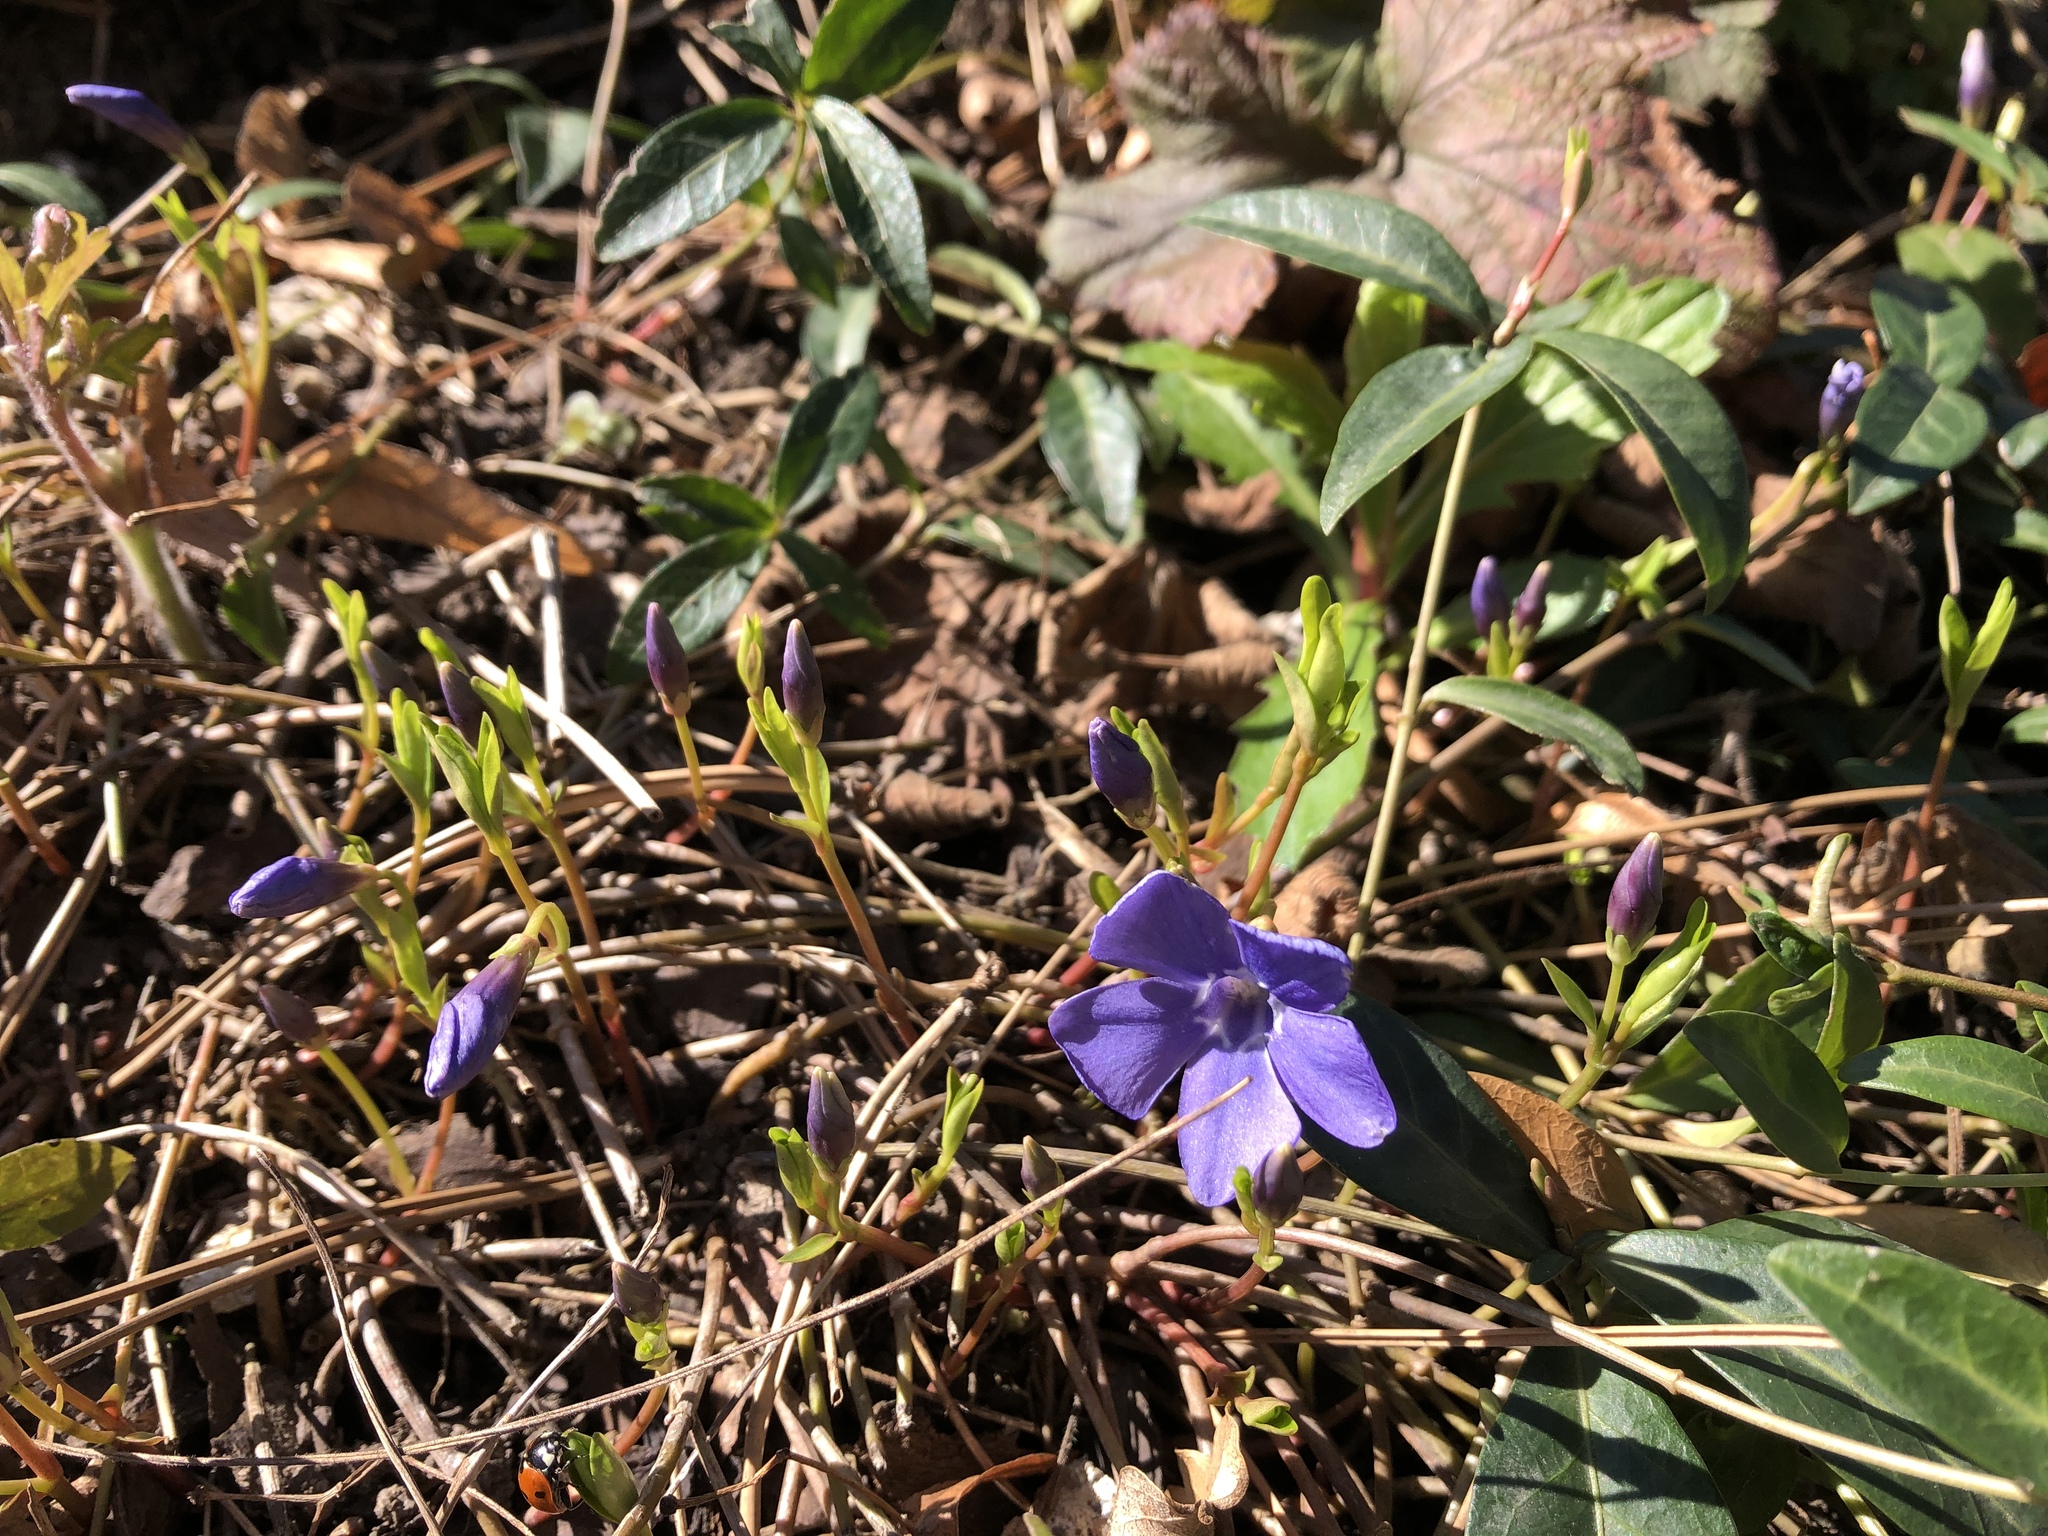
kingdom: Plantae
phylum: Tracheophyta
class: Magnoliopsida
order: Gentianales
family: Apocynaceae
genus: Vinca
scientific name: Vinca minor
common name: Lesser periwinkle
